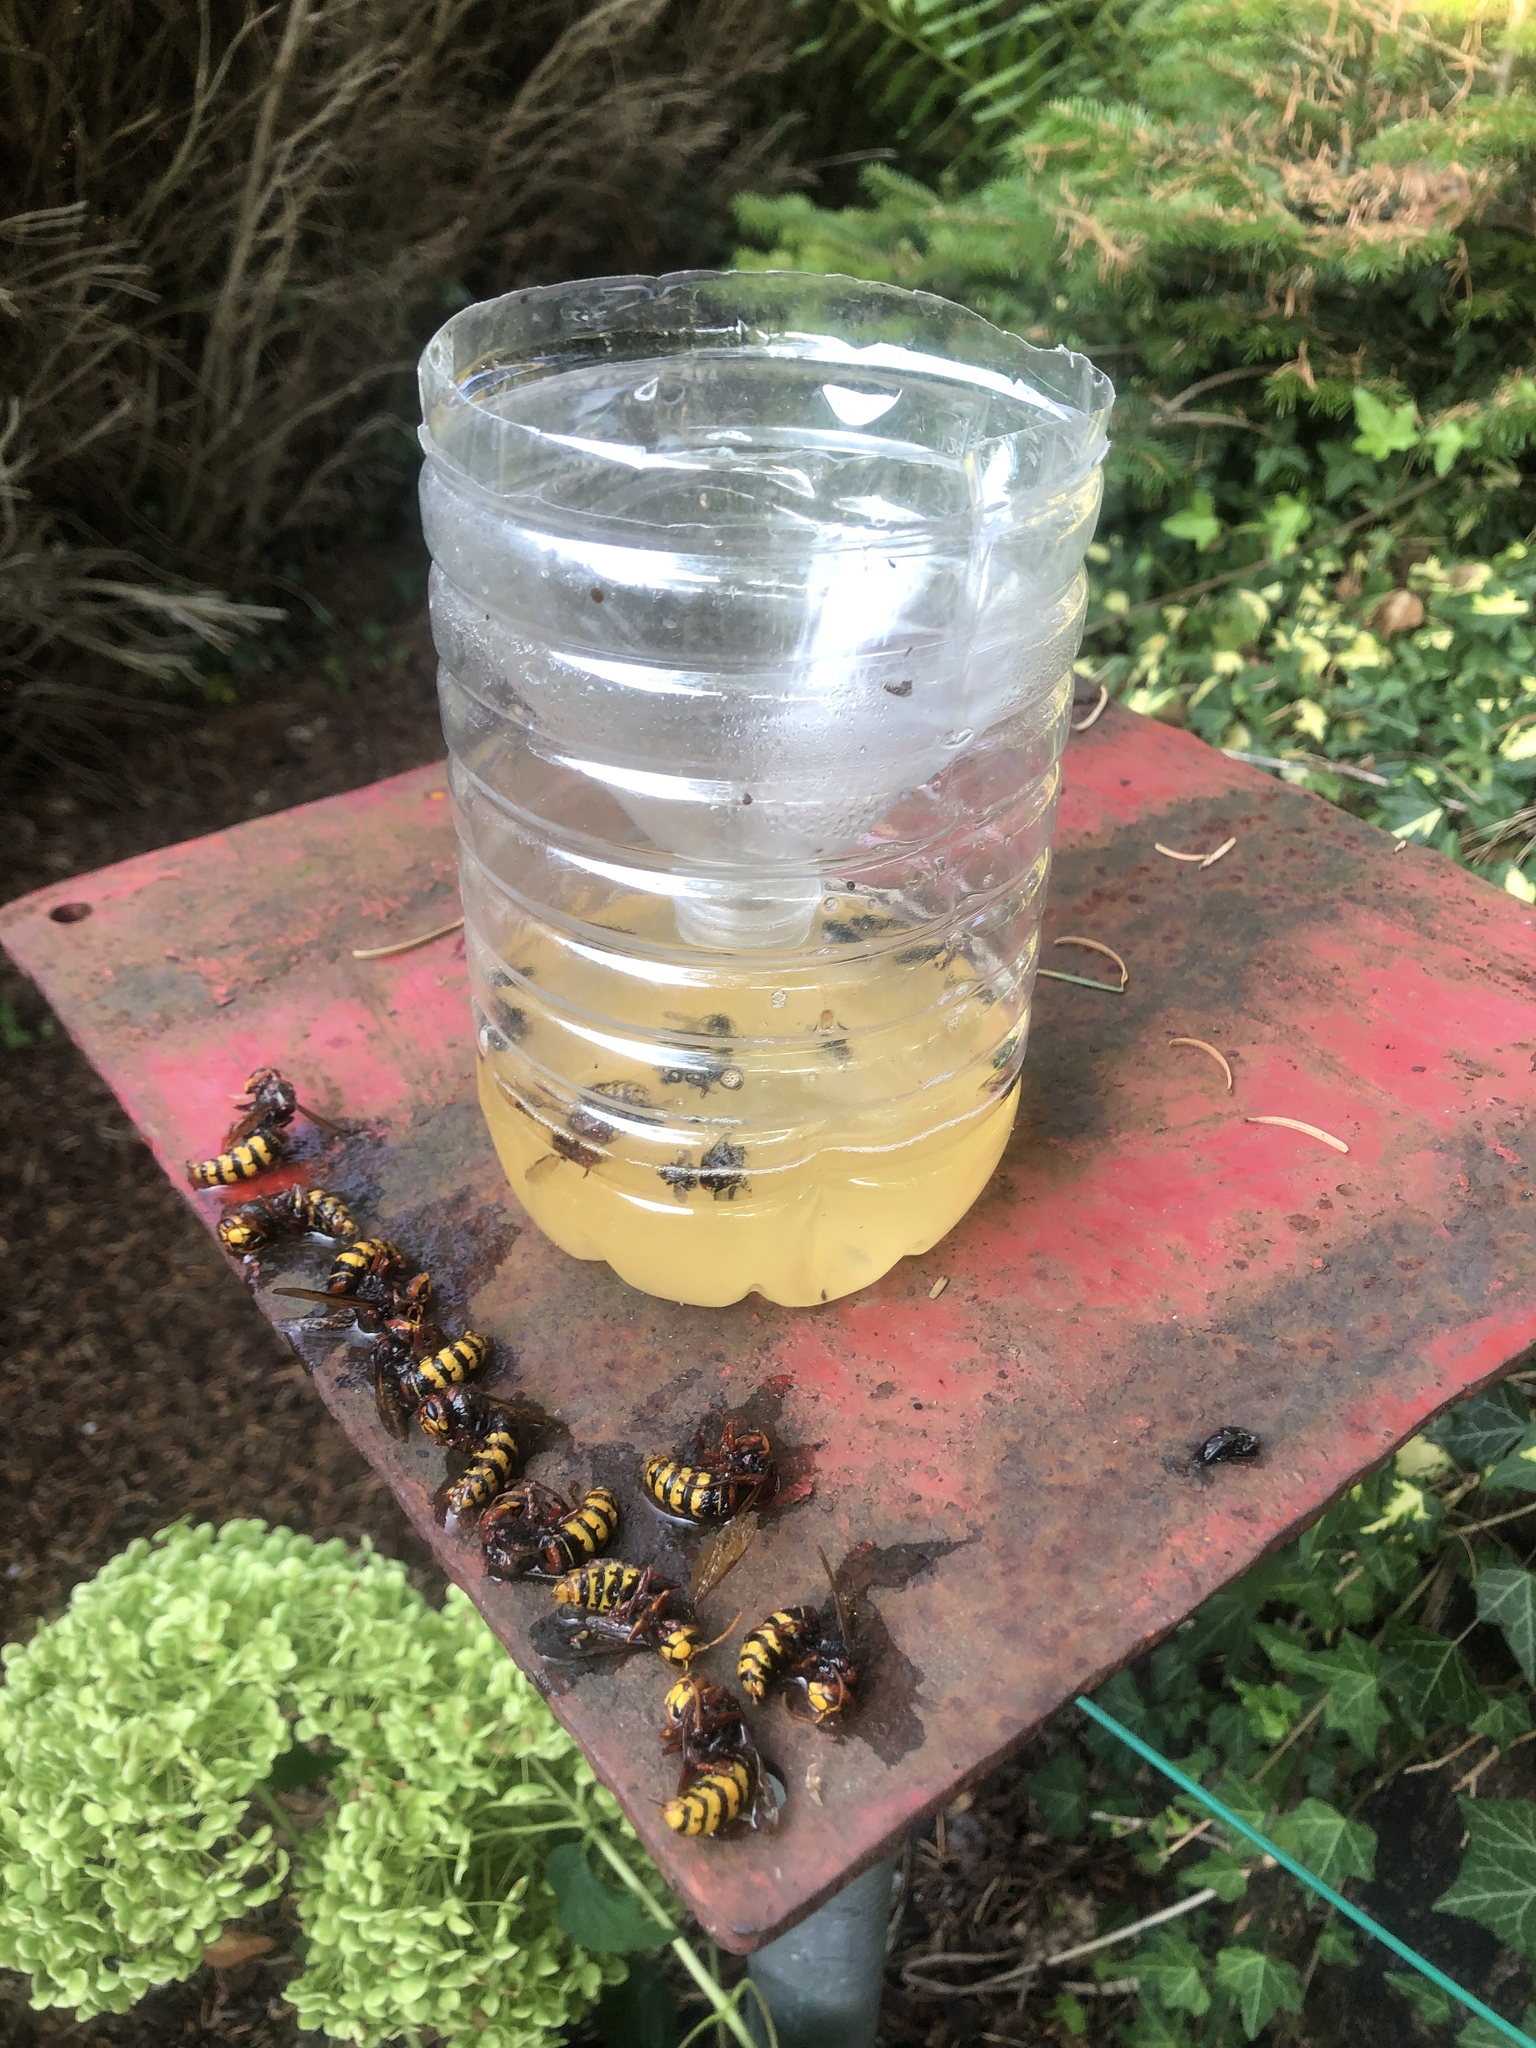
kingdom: Animalia
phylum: Arthropoda
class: Insecta
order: Hymenoptera
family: Vespidae
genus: Vespa
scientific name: Vespa crabro
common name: Hornet
